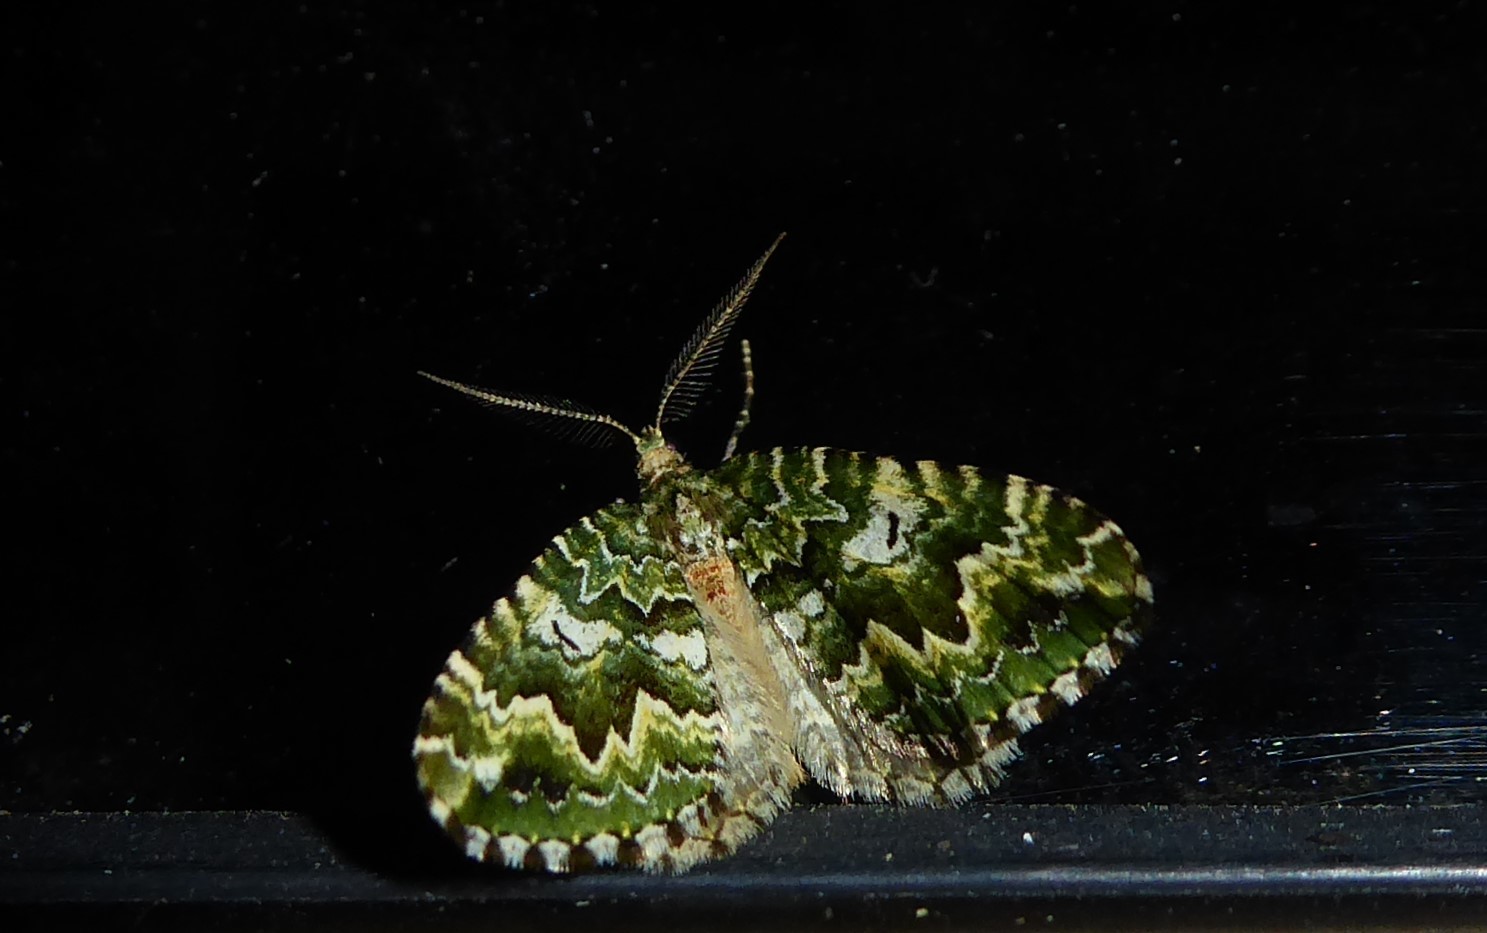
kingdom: Animalia
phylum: Arthropoda
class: Insecta
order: Lepidoptera
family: Geometridae
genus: Asaphodes
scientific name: Asaphodes beata
